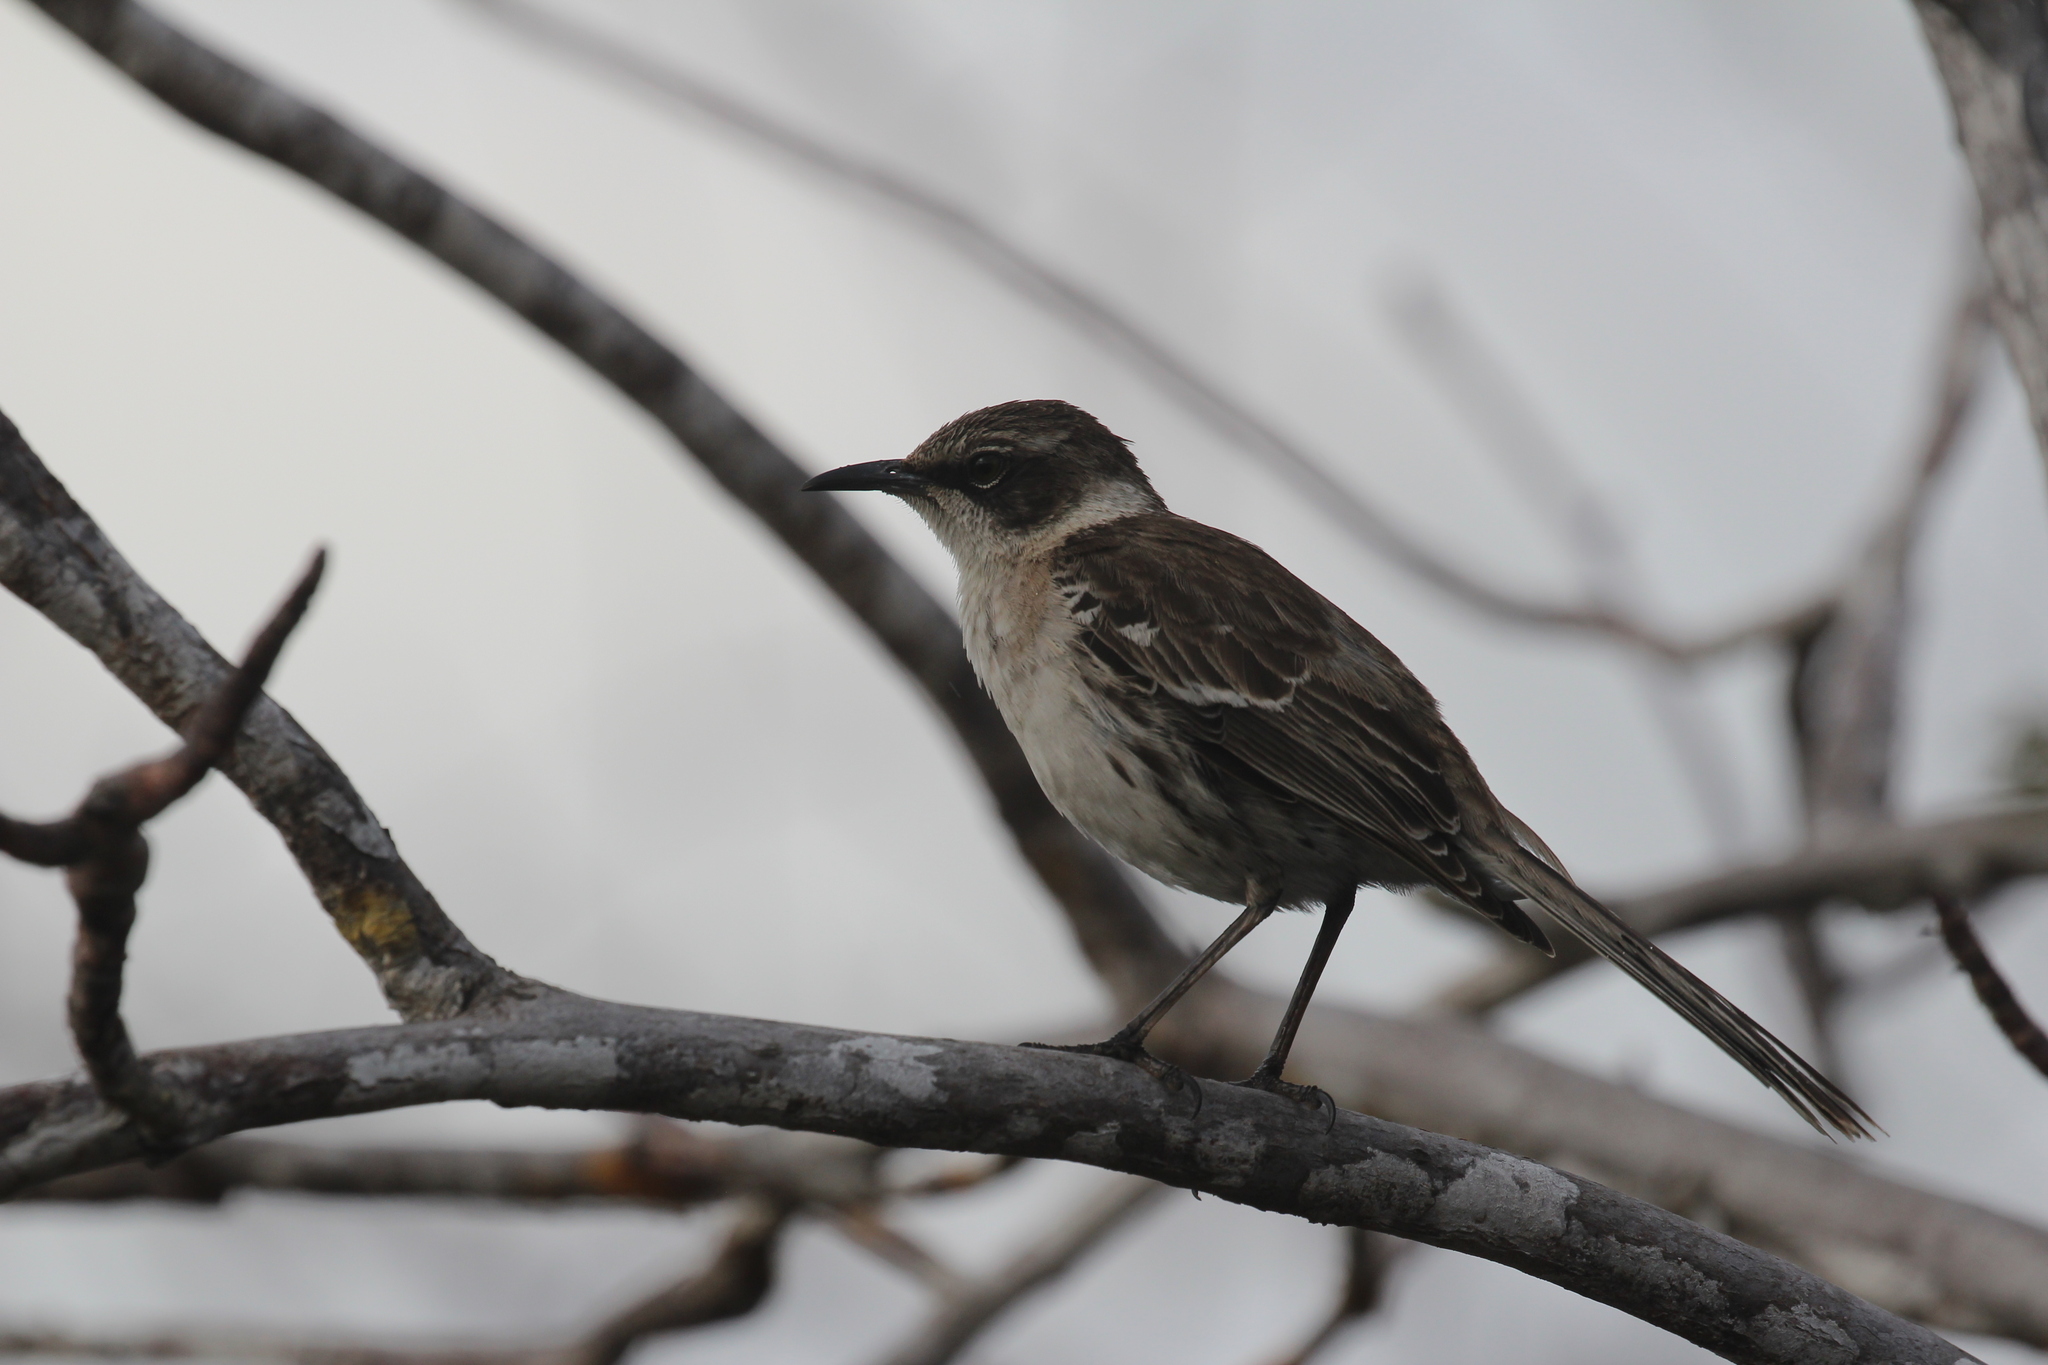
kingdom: Animalia
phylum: Chordata
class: Aves
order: Passeriformes
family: Mimidae
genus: Mimus
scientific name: Mimus parvulus
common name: Galapagos mockingbird
